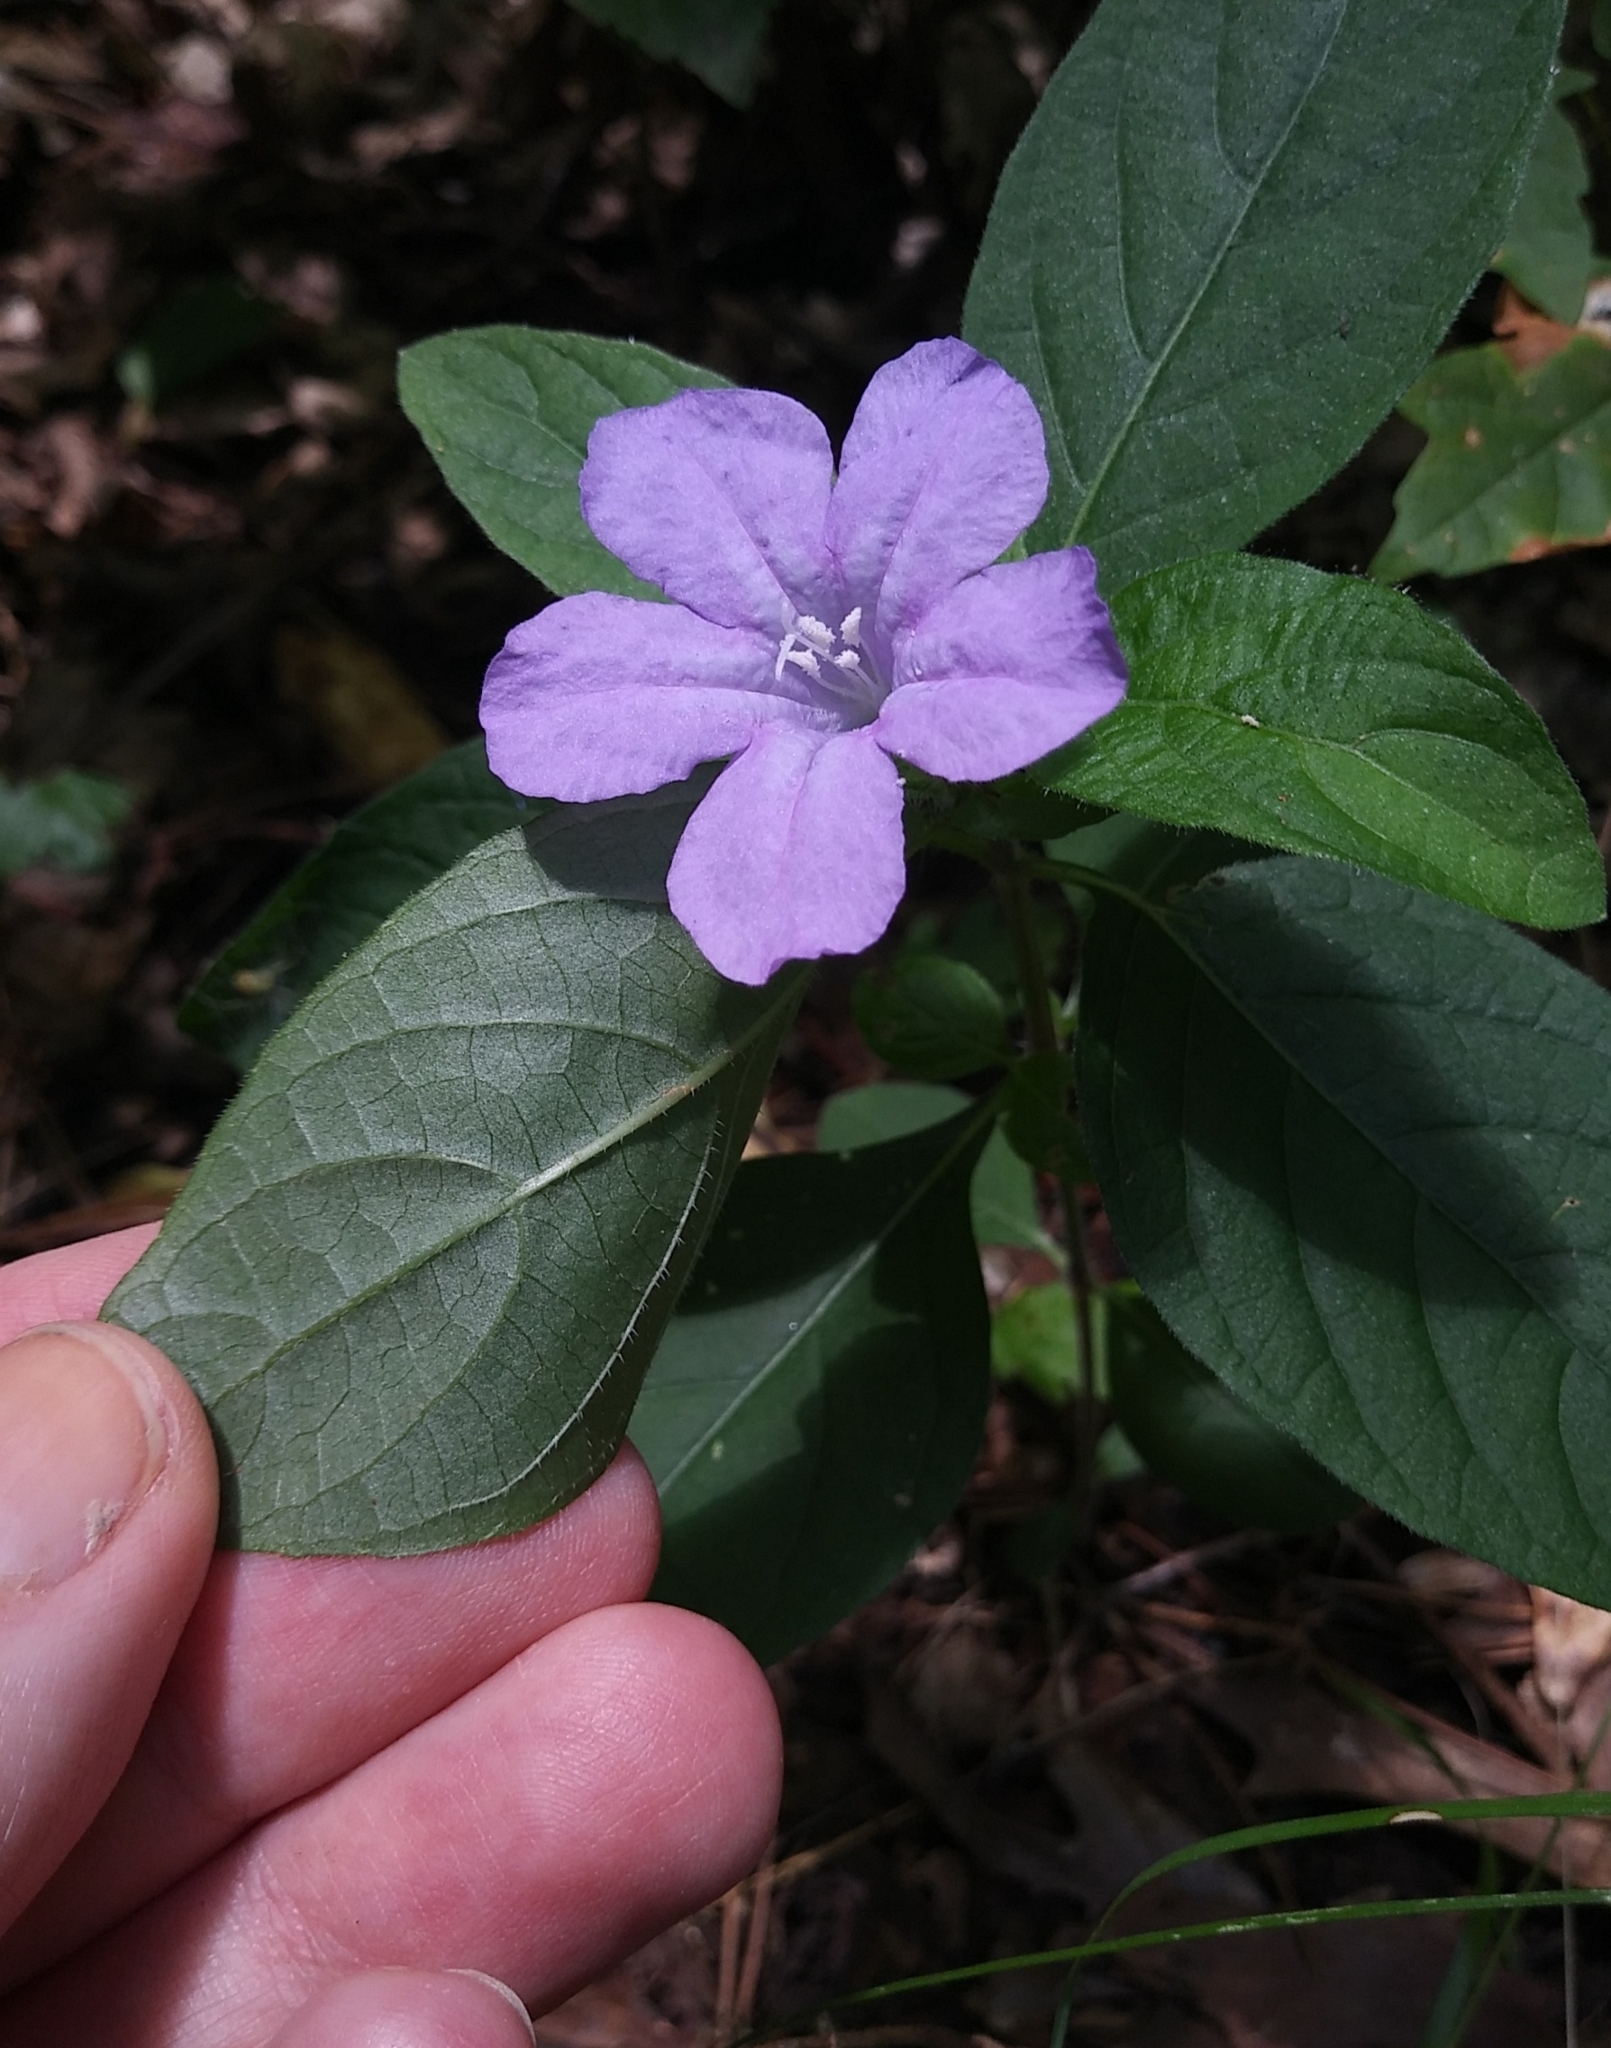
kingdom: Plantae
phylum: Tracheophyta
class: Magnoliopsida
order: Lamiales
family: Acanthaceae
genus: Ruellia
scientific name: Ruellia caroliniensis
